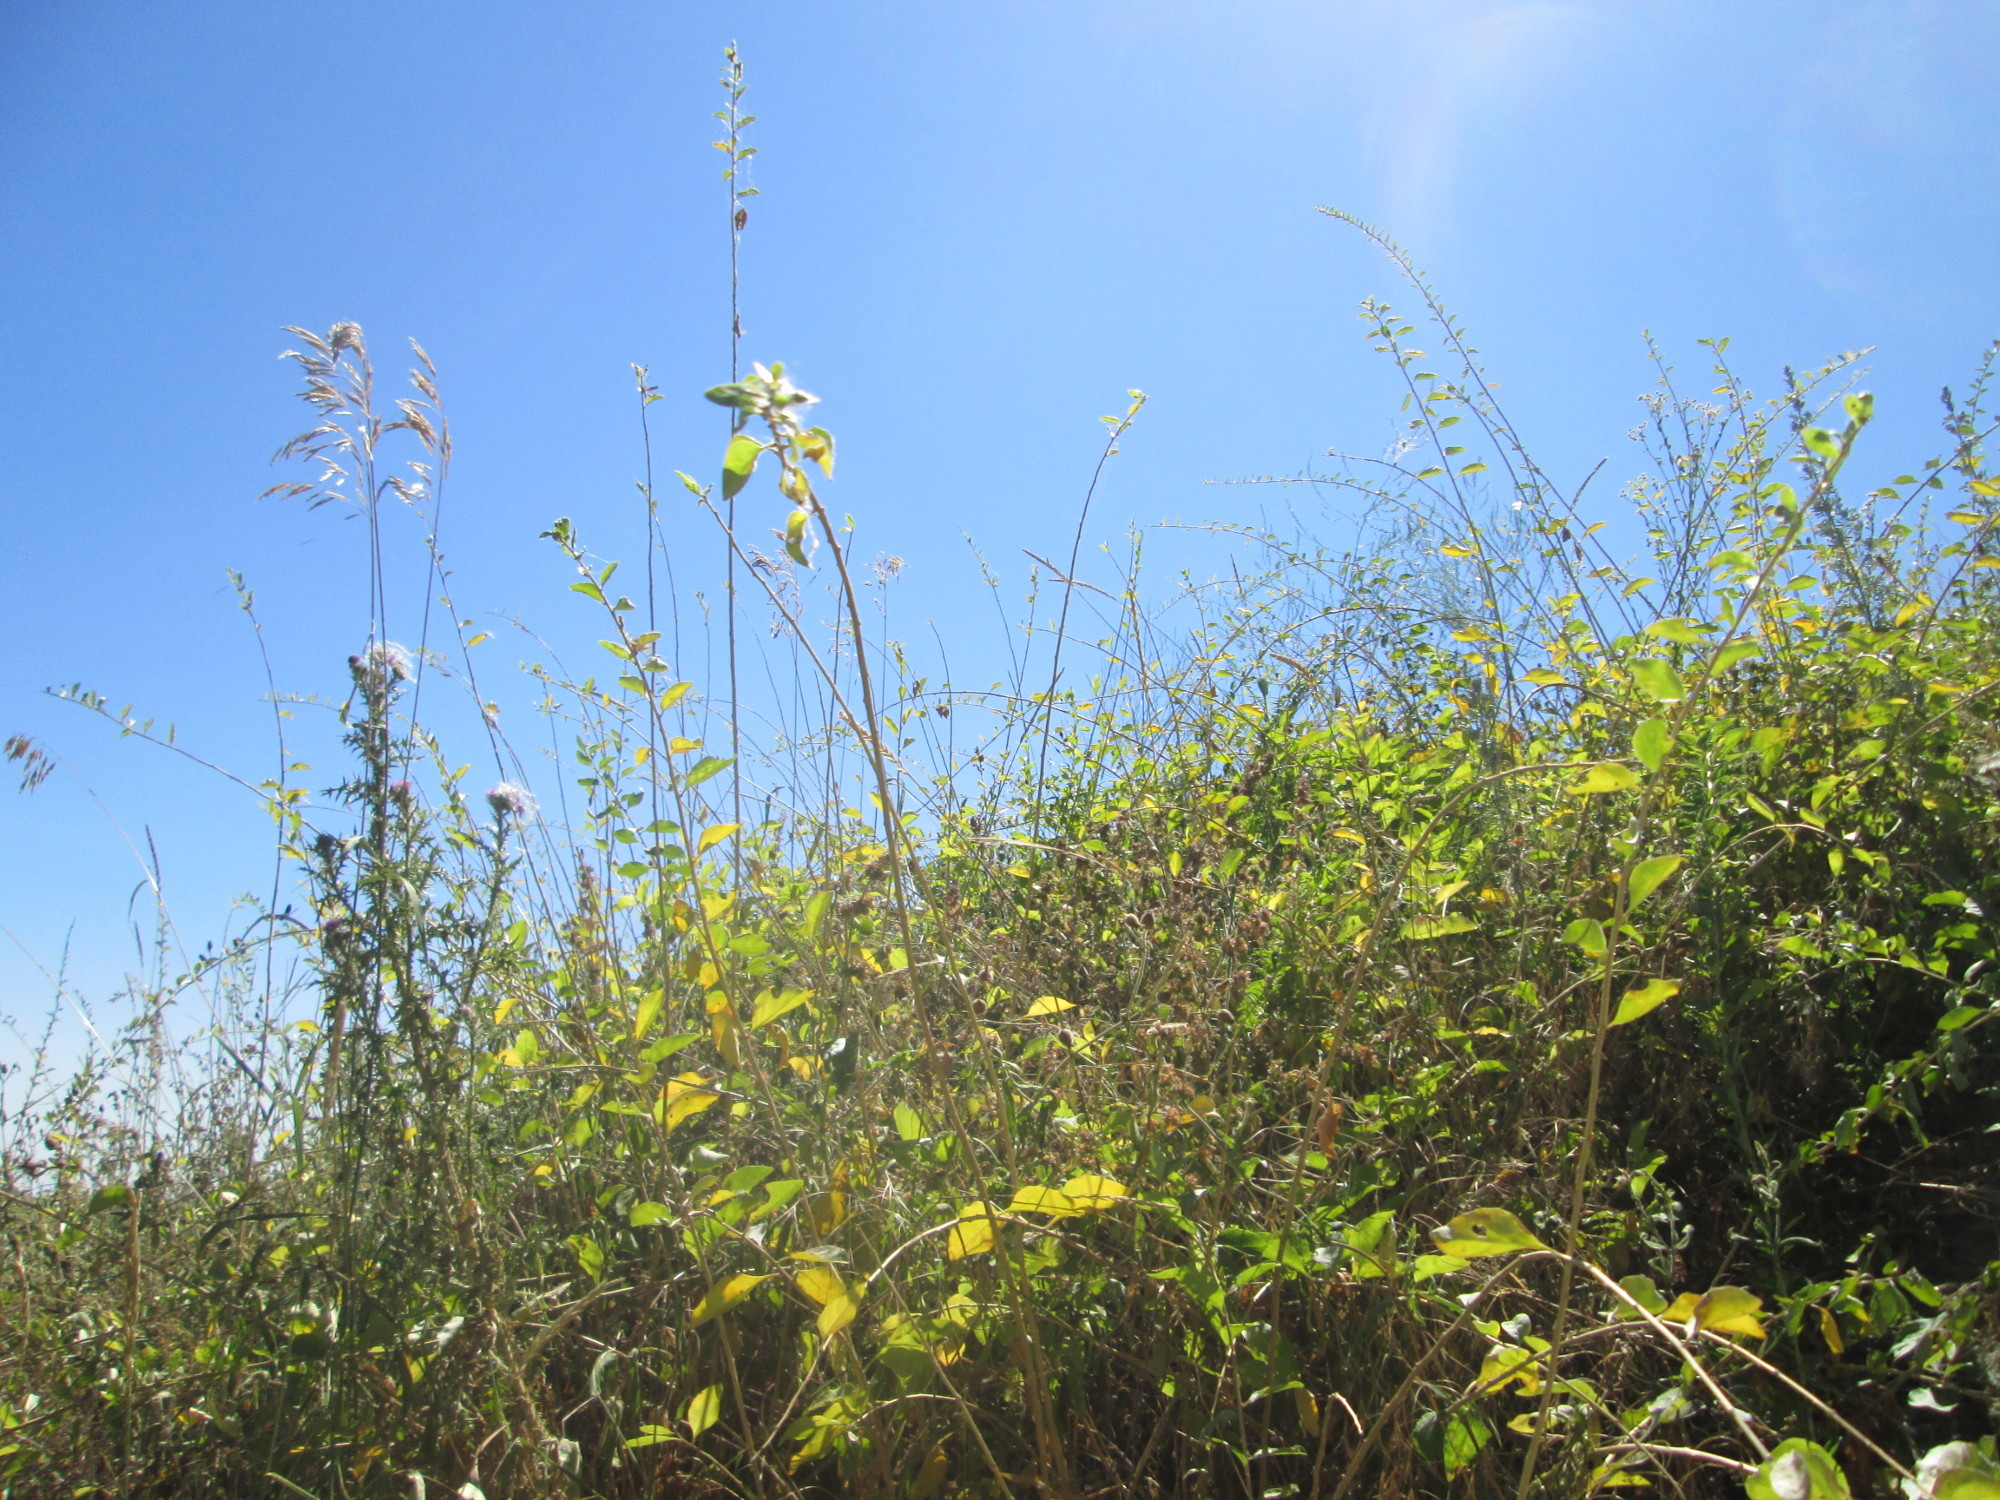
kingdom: Plantae
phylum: Tracheophyta
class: Magnoliopsida
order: Solanales
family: Solanaceae
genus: Lycium
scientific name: Lycium barbarum
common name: Duke of argyll's teaplant
